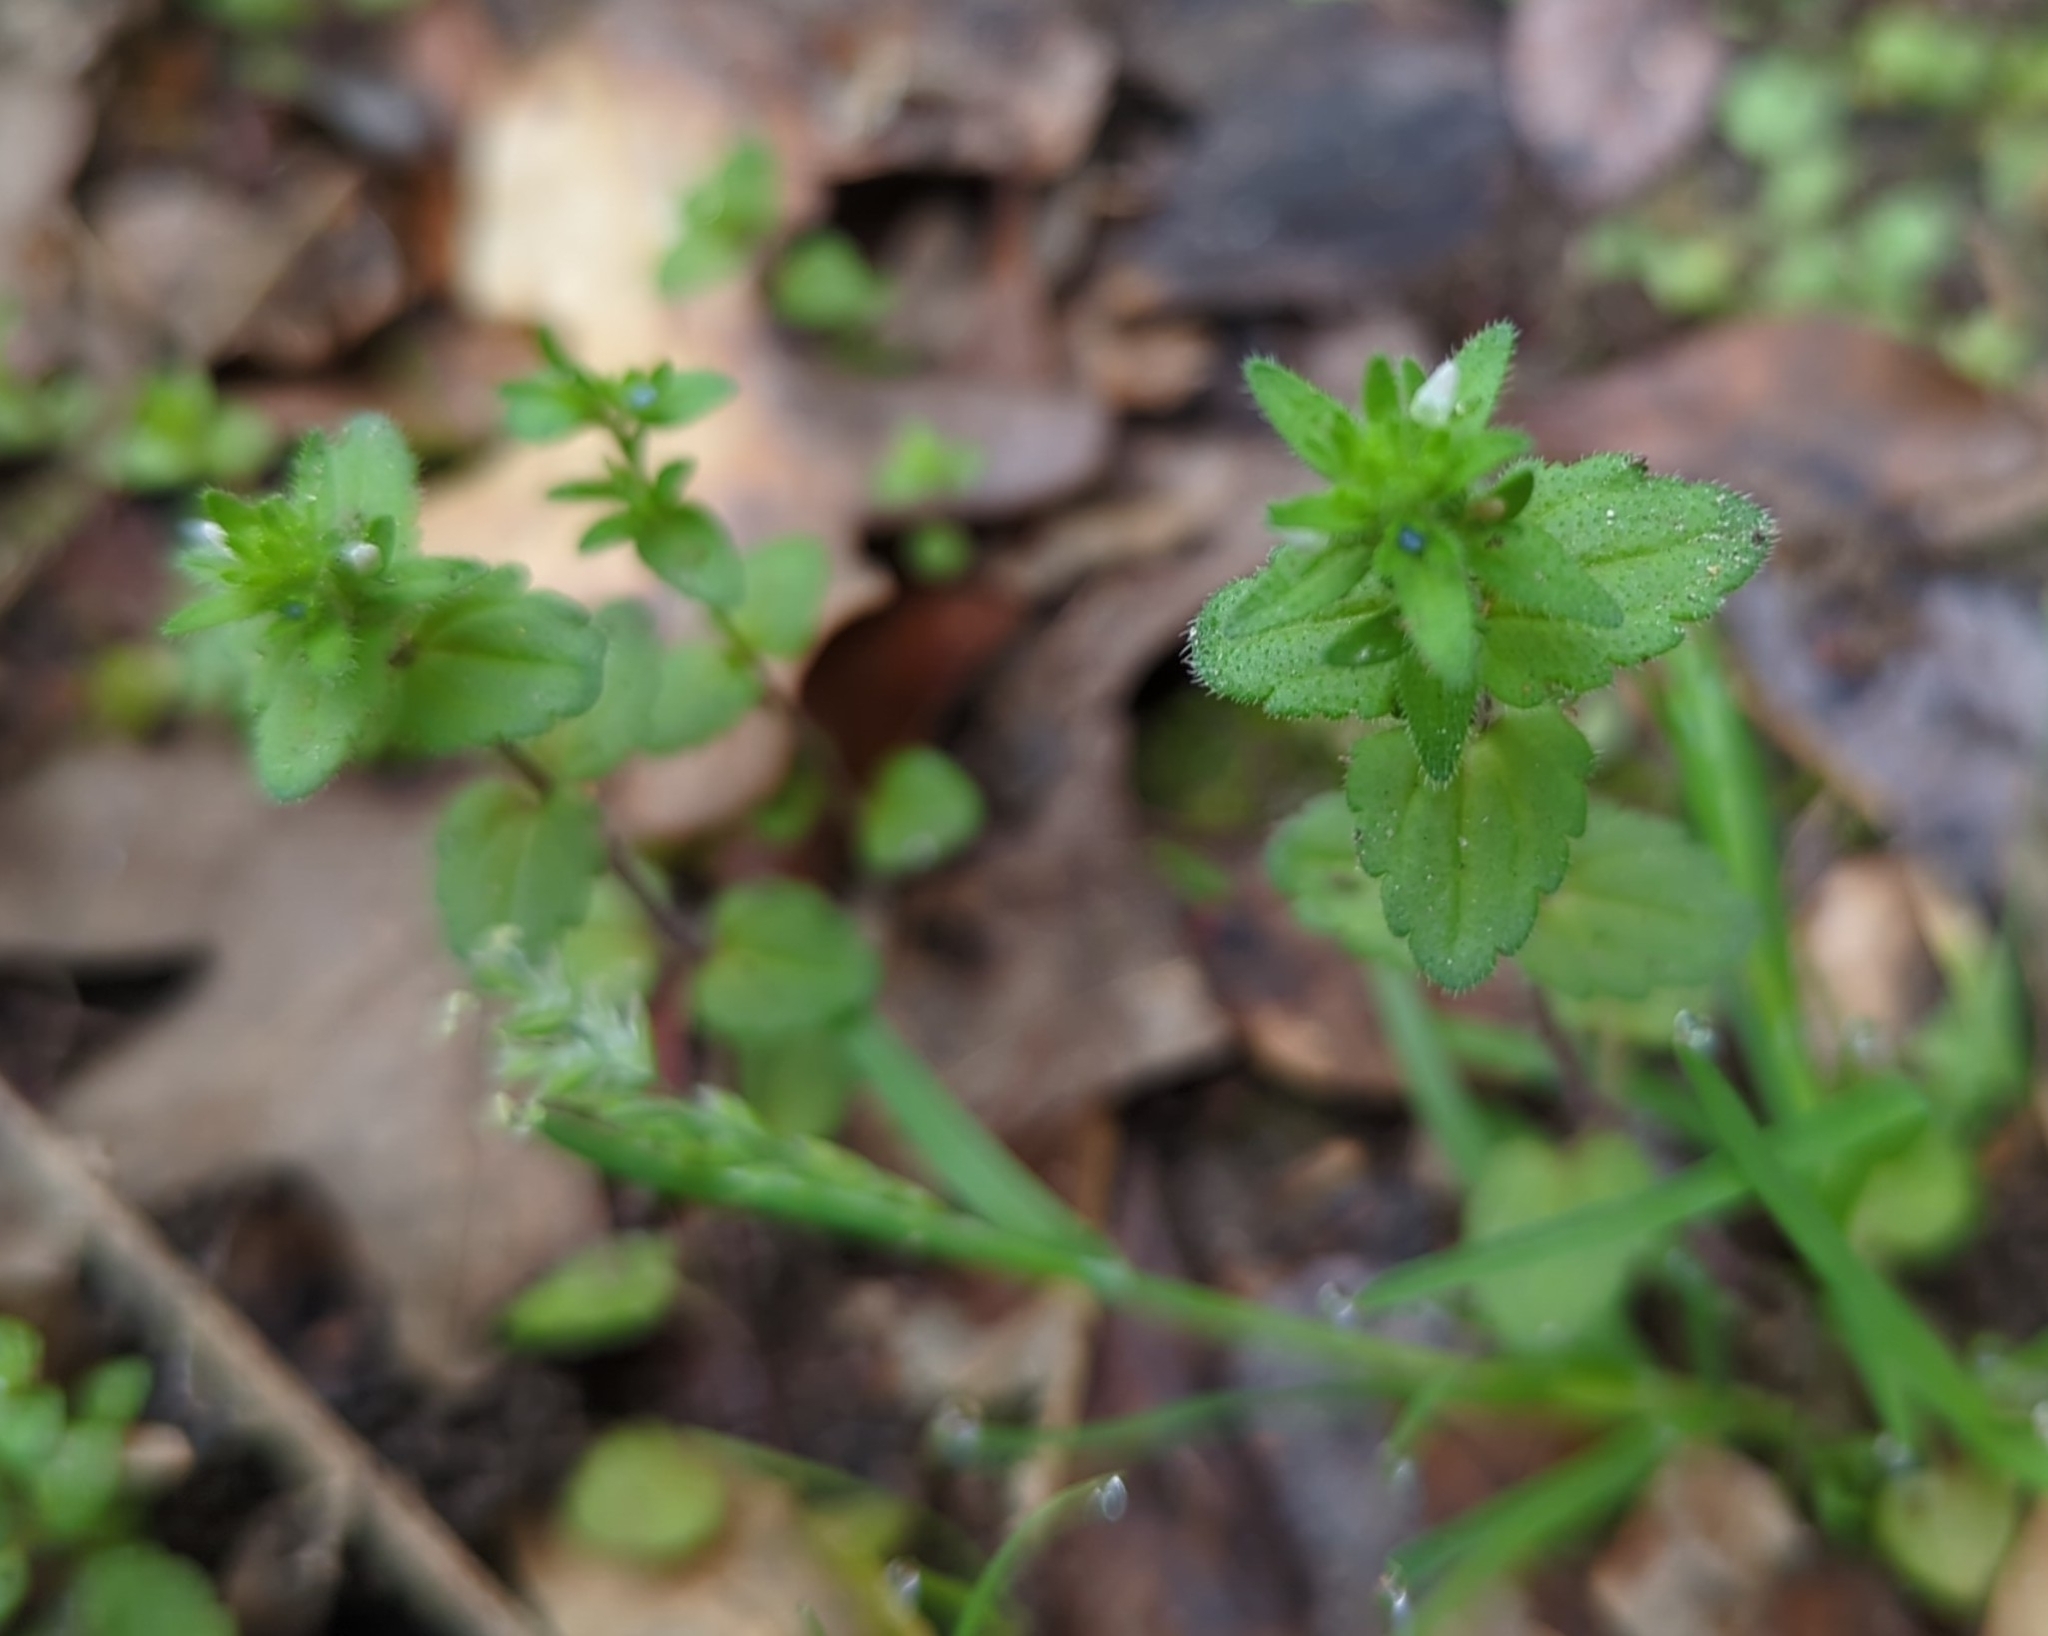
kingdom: Plantae
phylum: Tracheophyta
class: Magnoliopsida
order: Lamiales
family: Plantaginaceae
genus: Veronica
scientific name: Veronica arvensis
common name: Corn speedwell
